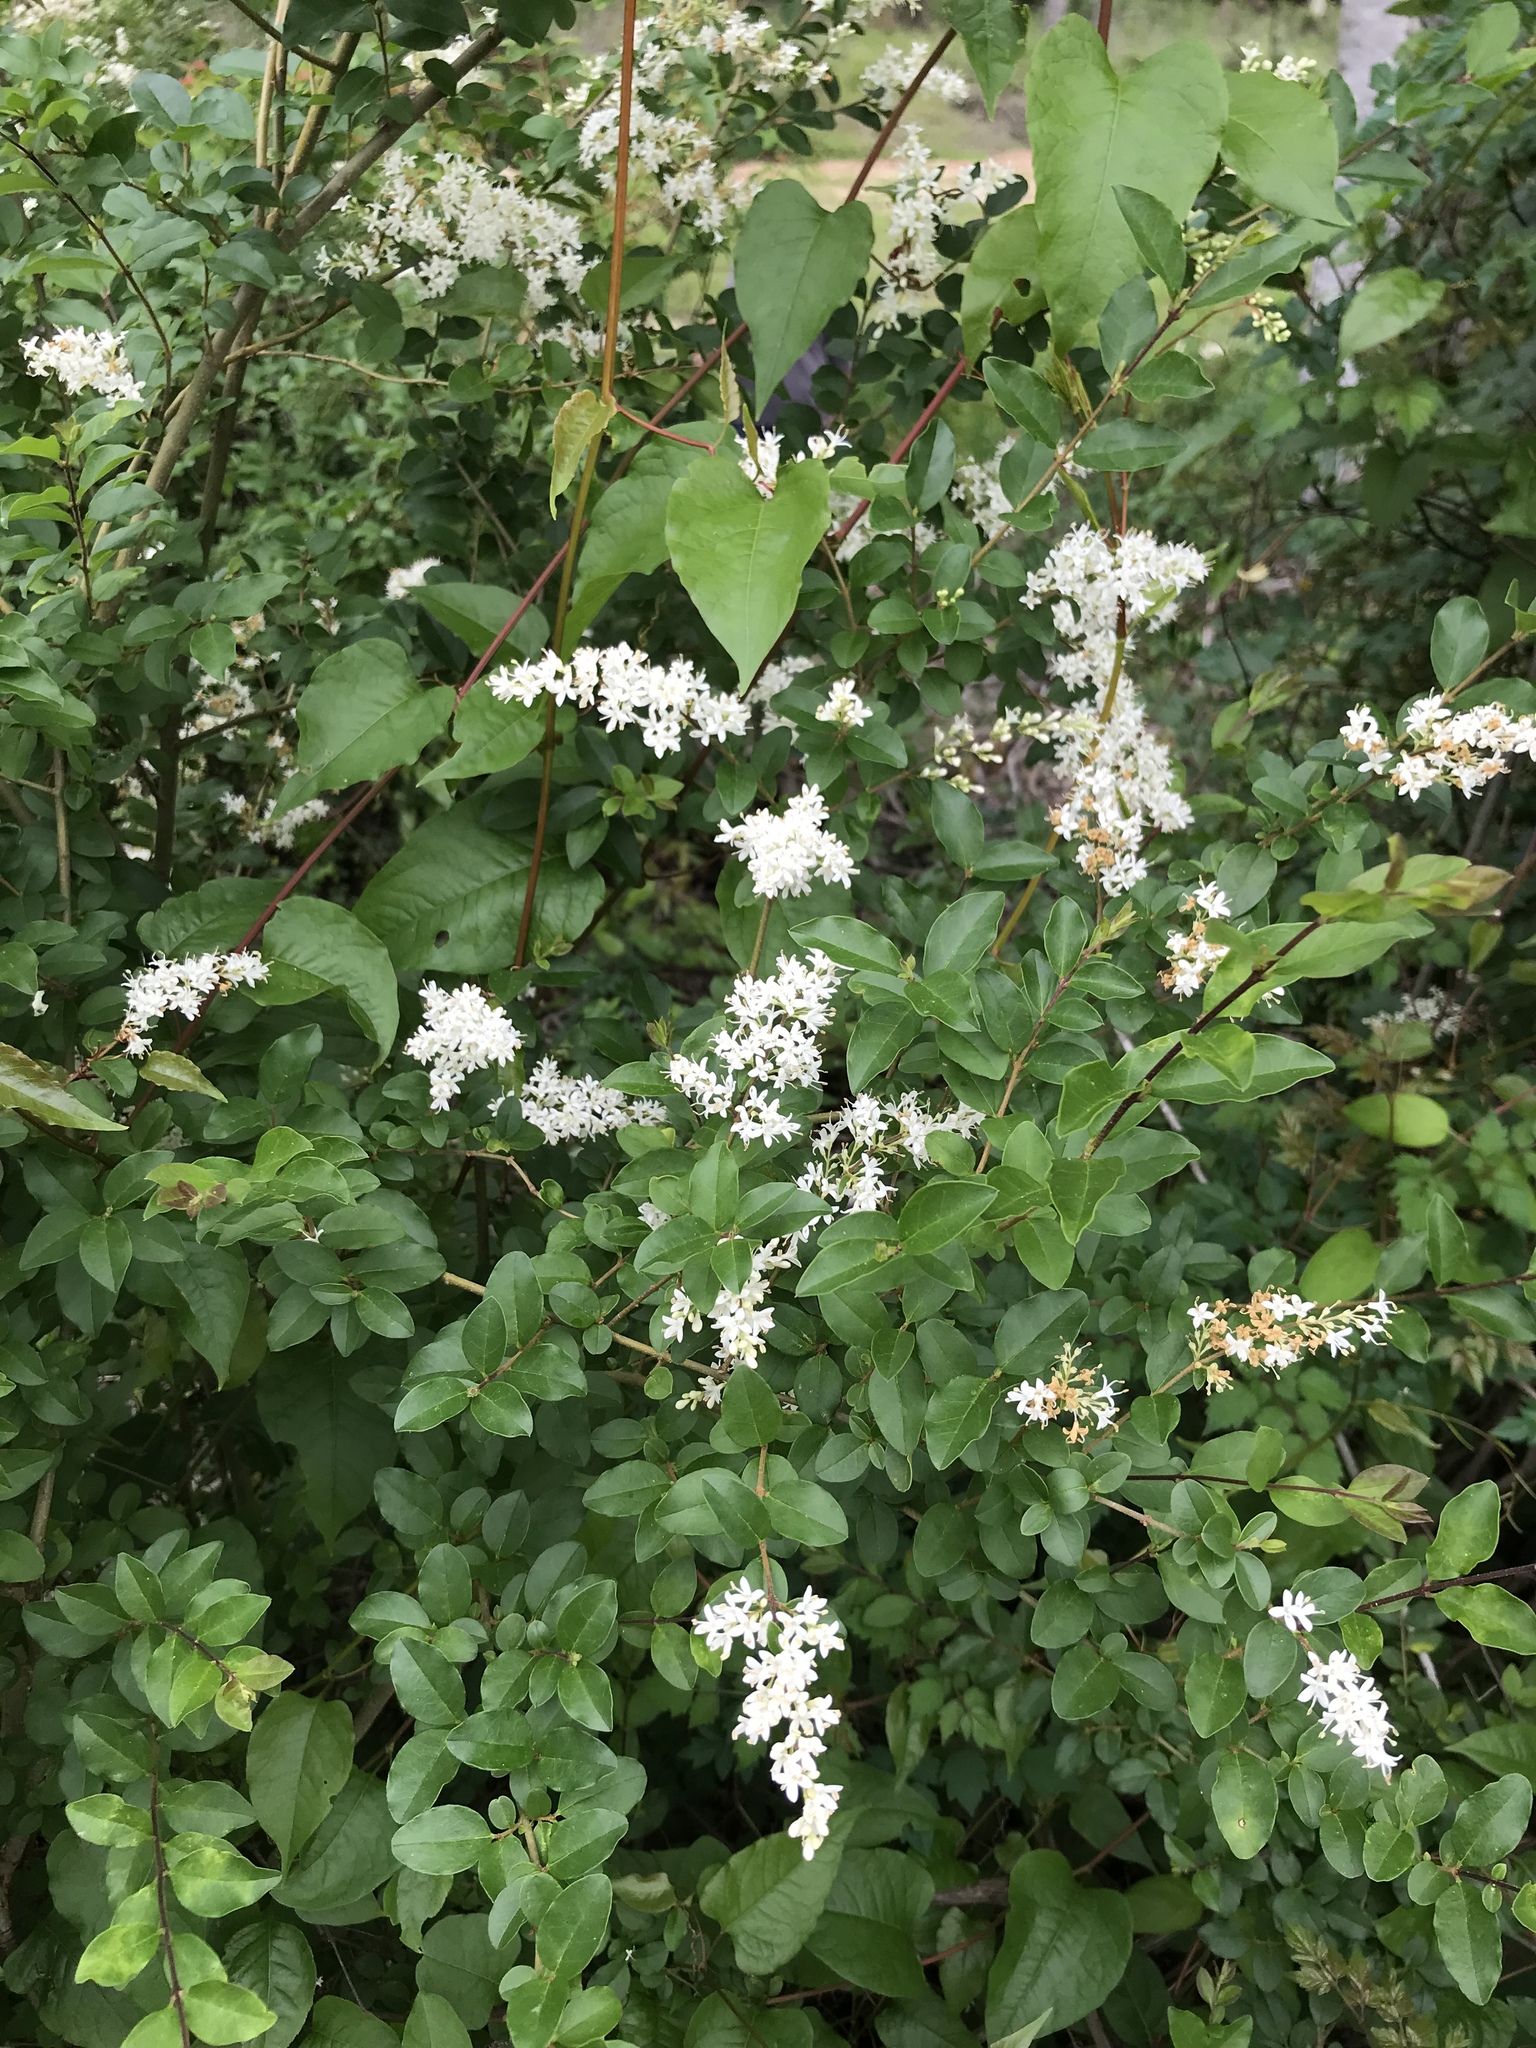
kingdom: Plantae
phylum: Tracheophyta
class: Magnoliopsida
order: Lamiales
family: Oleaceae
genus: Ligustrum
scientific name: Ligustrum sinense
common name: Chinese privet
